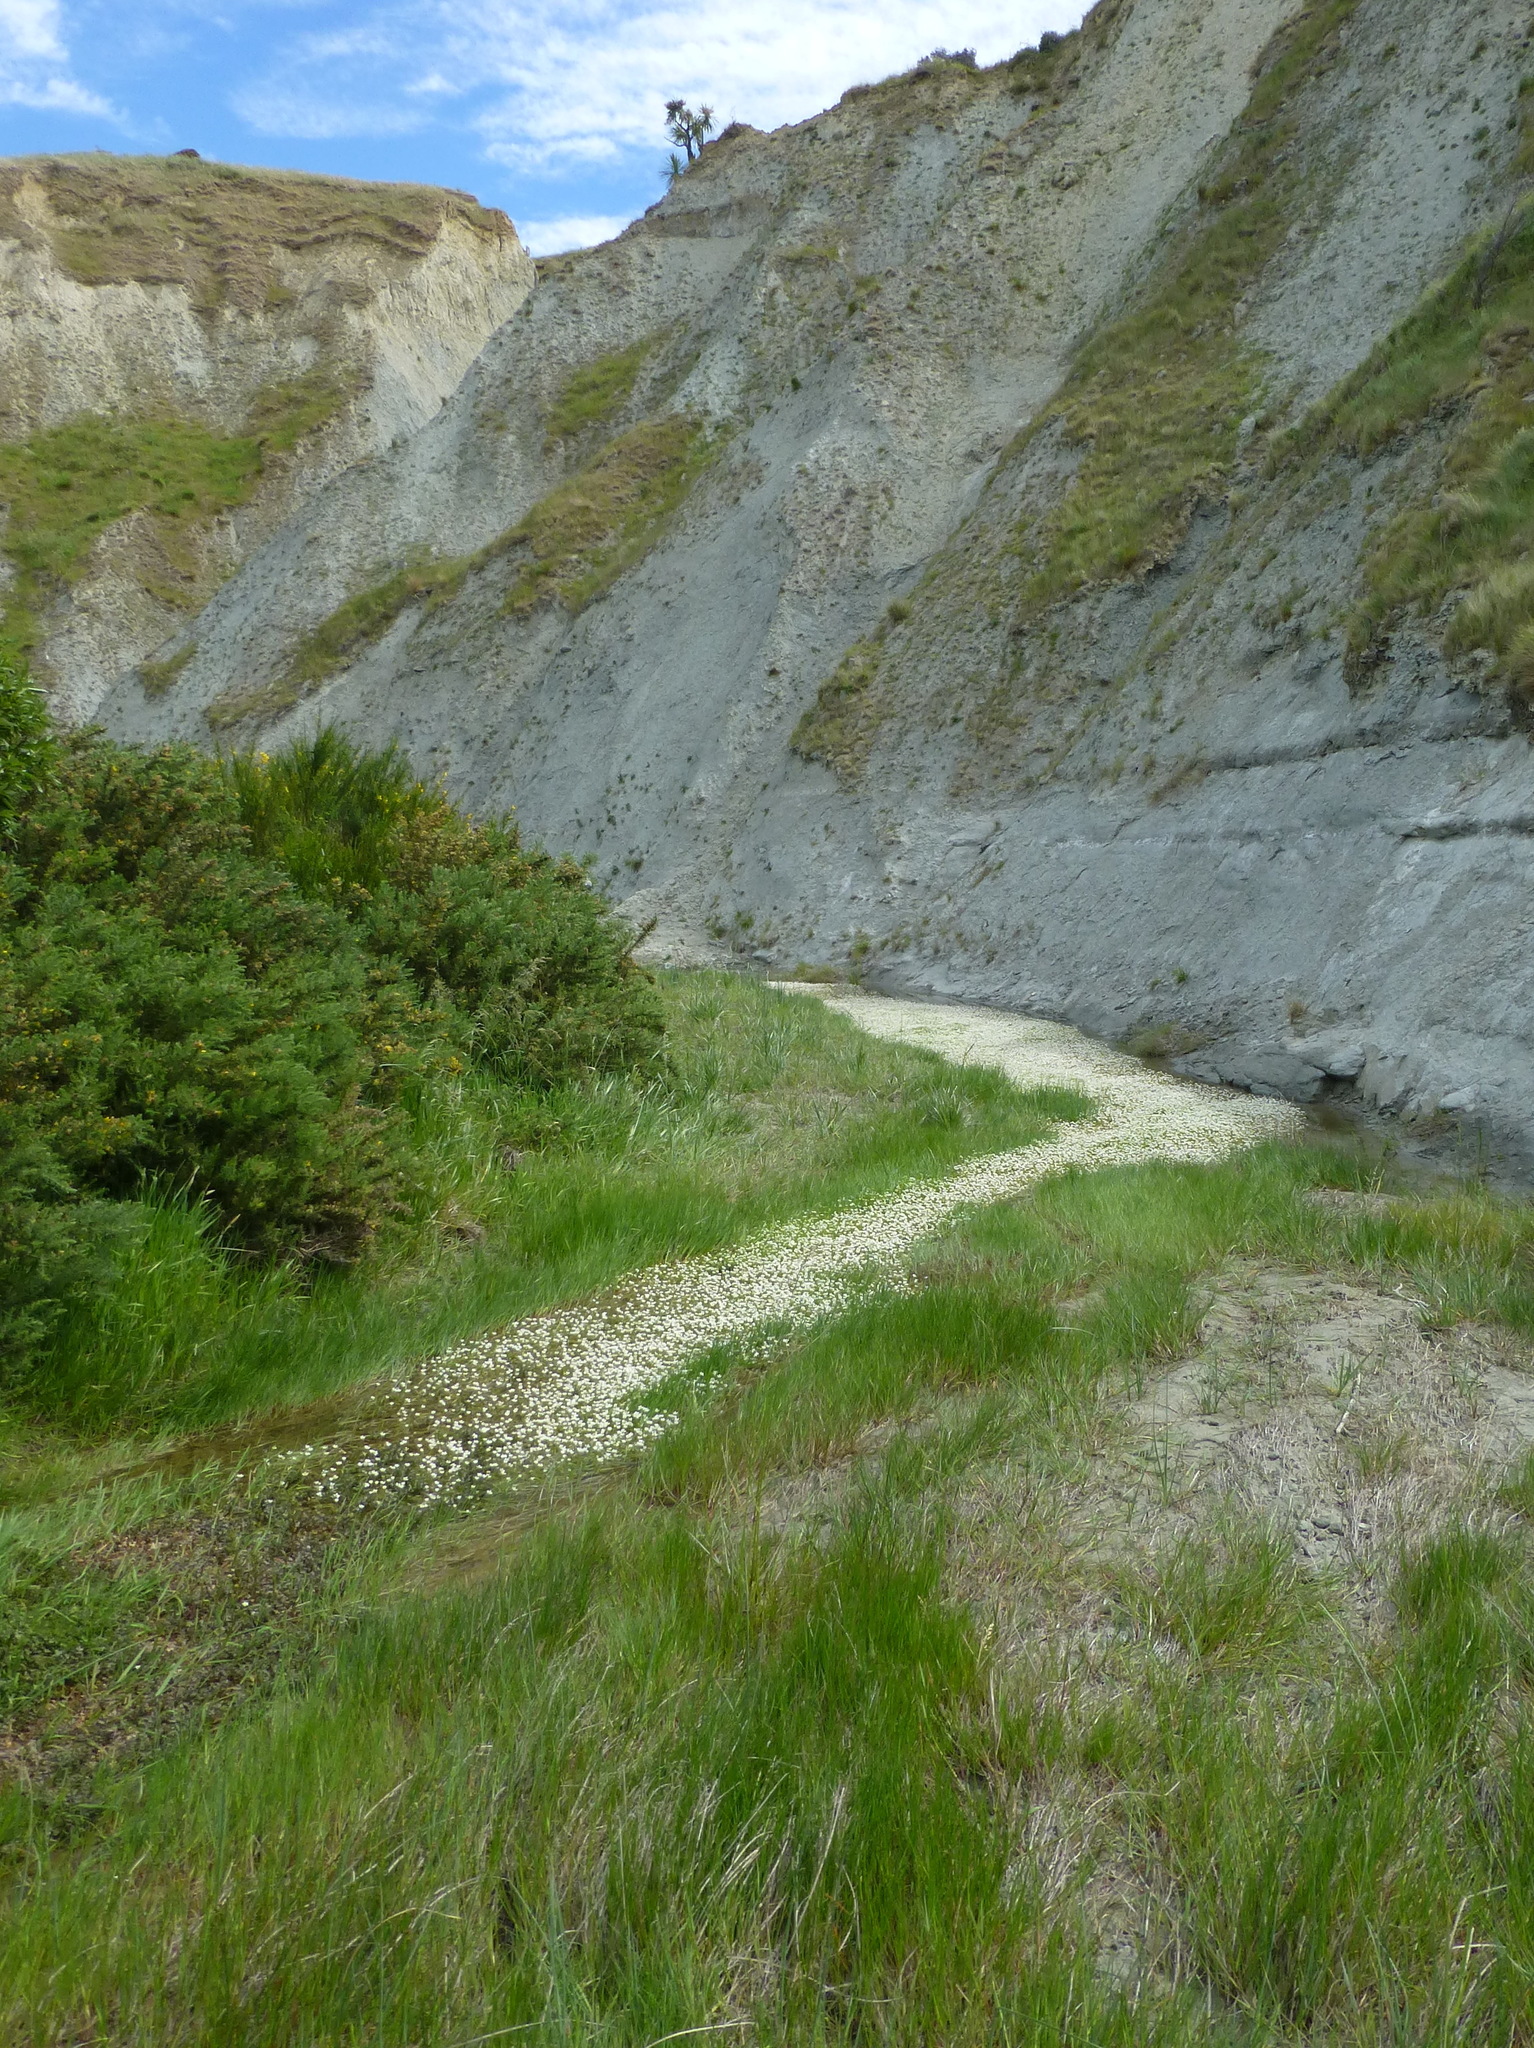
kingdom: Plantae
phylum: Tracheophyta
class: Magnoliopsida
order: Ranunculales
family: Ranunculaceae
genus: Ranunculus
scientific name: Ranunculus trichophyllus
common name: Thread-leaved water-crowfoot
